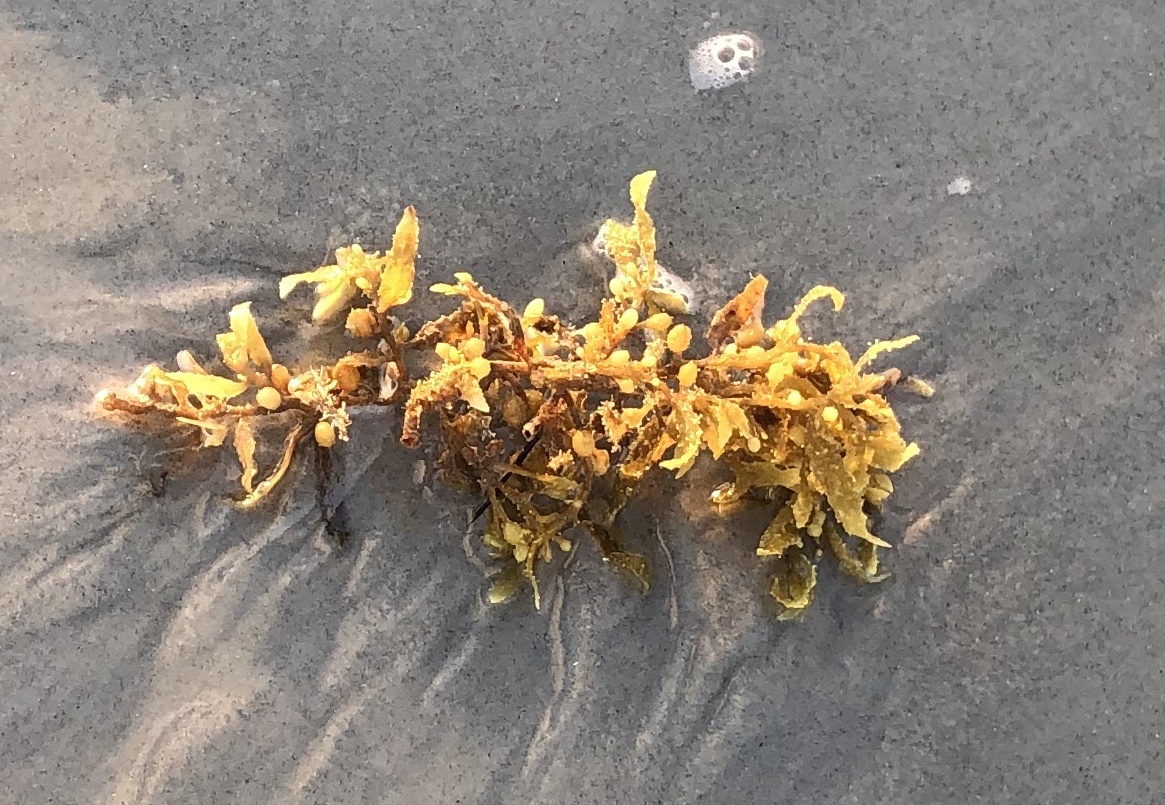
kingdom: Chromista
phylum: Ochrophyta
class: Phaeophyceae
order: Fucales
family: Sargassaceae
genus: Sargassum
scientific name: Sargassum fluitans
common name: Sargassum seaweed
